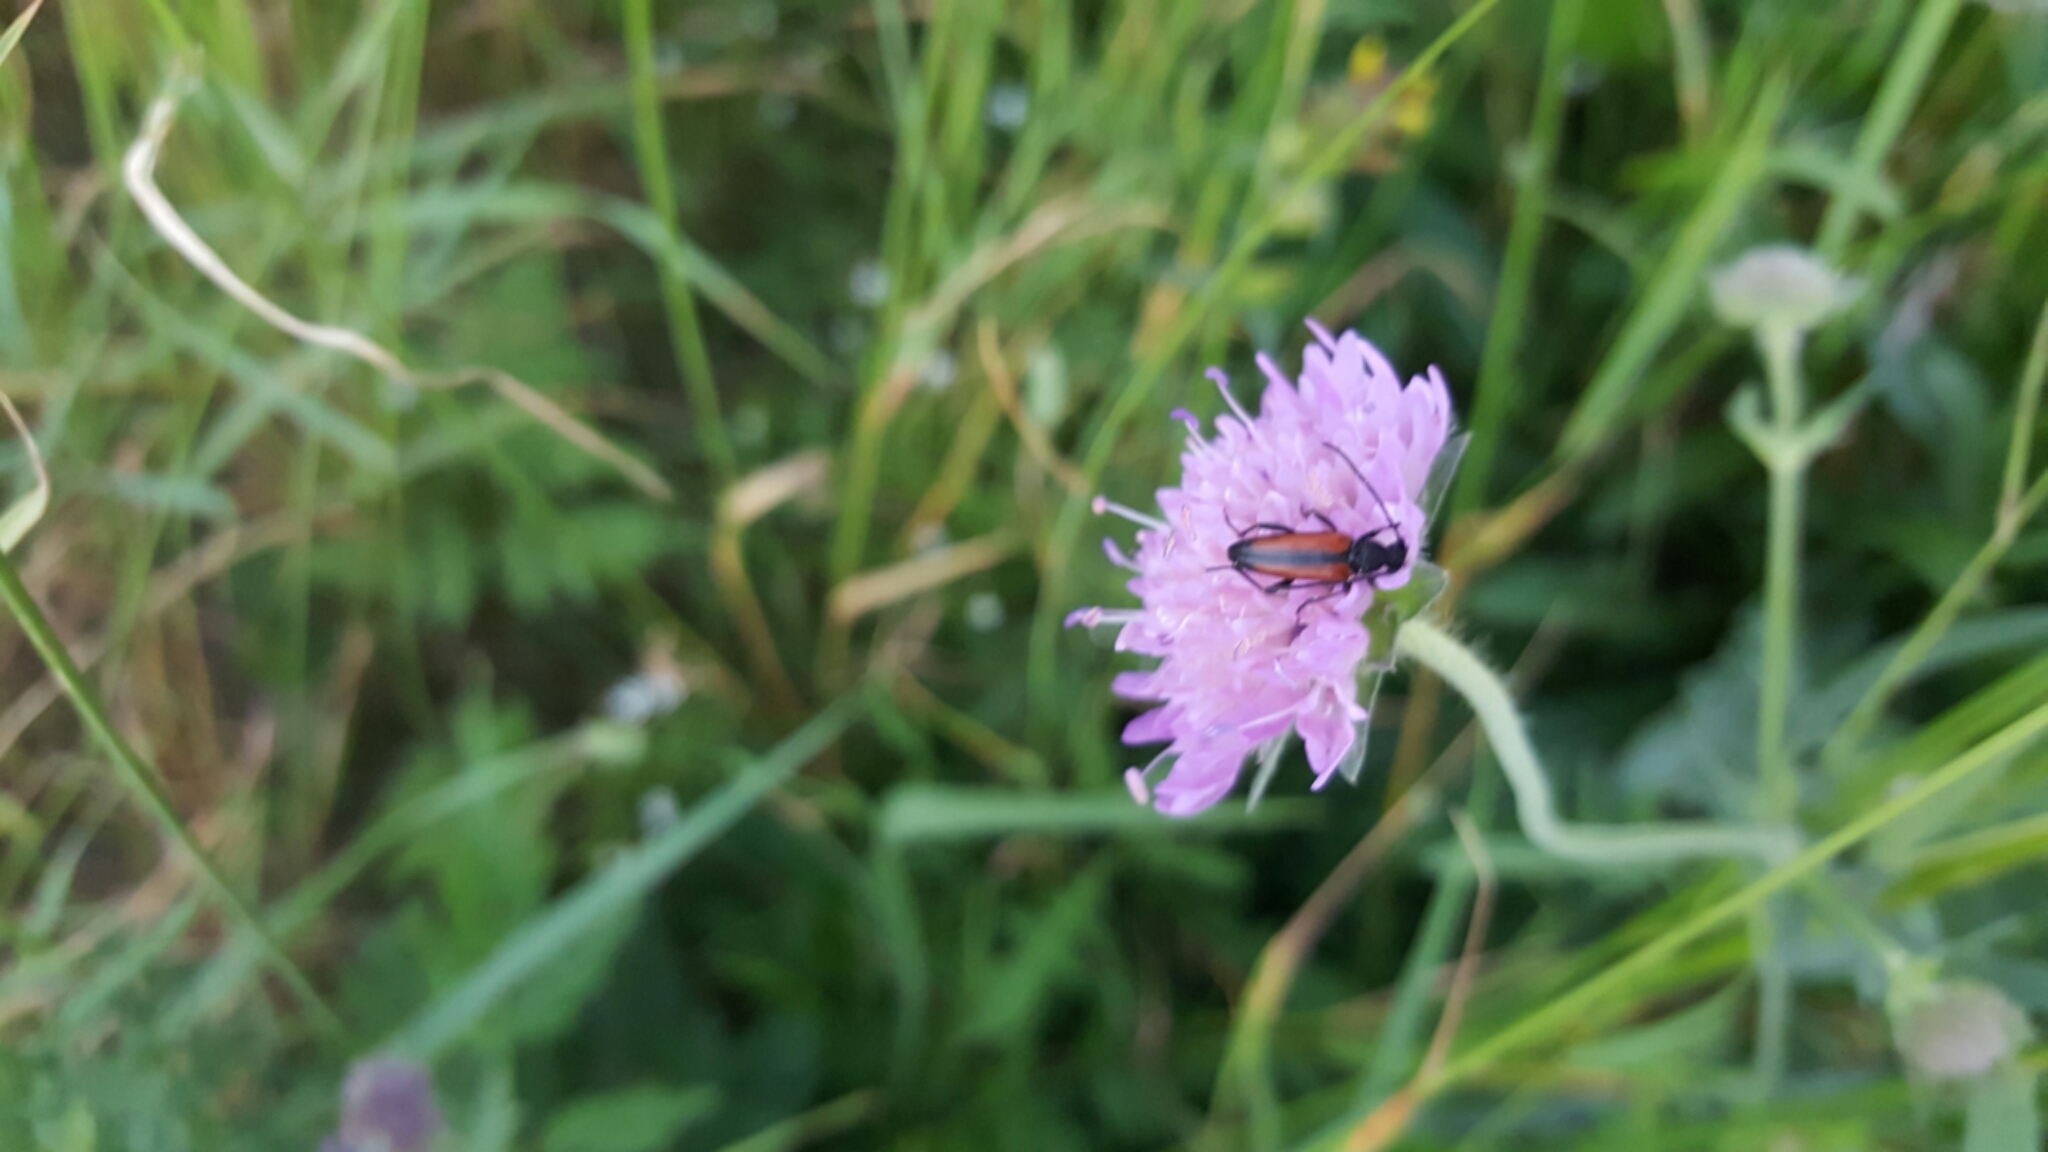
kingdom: Animalia
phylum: Arthropoda
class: Insecta
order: Coleoptera
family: Cerambycidae
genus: Stenurella
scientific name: Stenurella melanura
